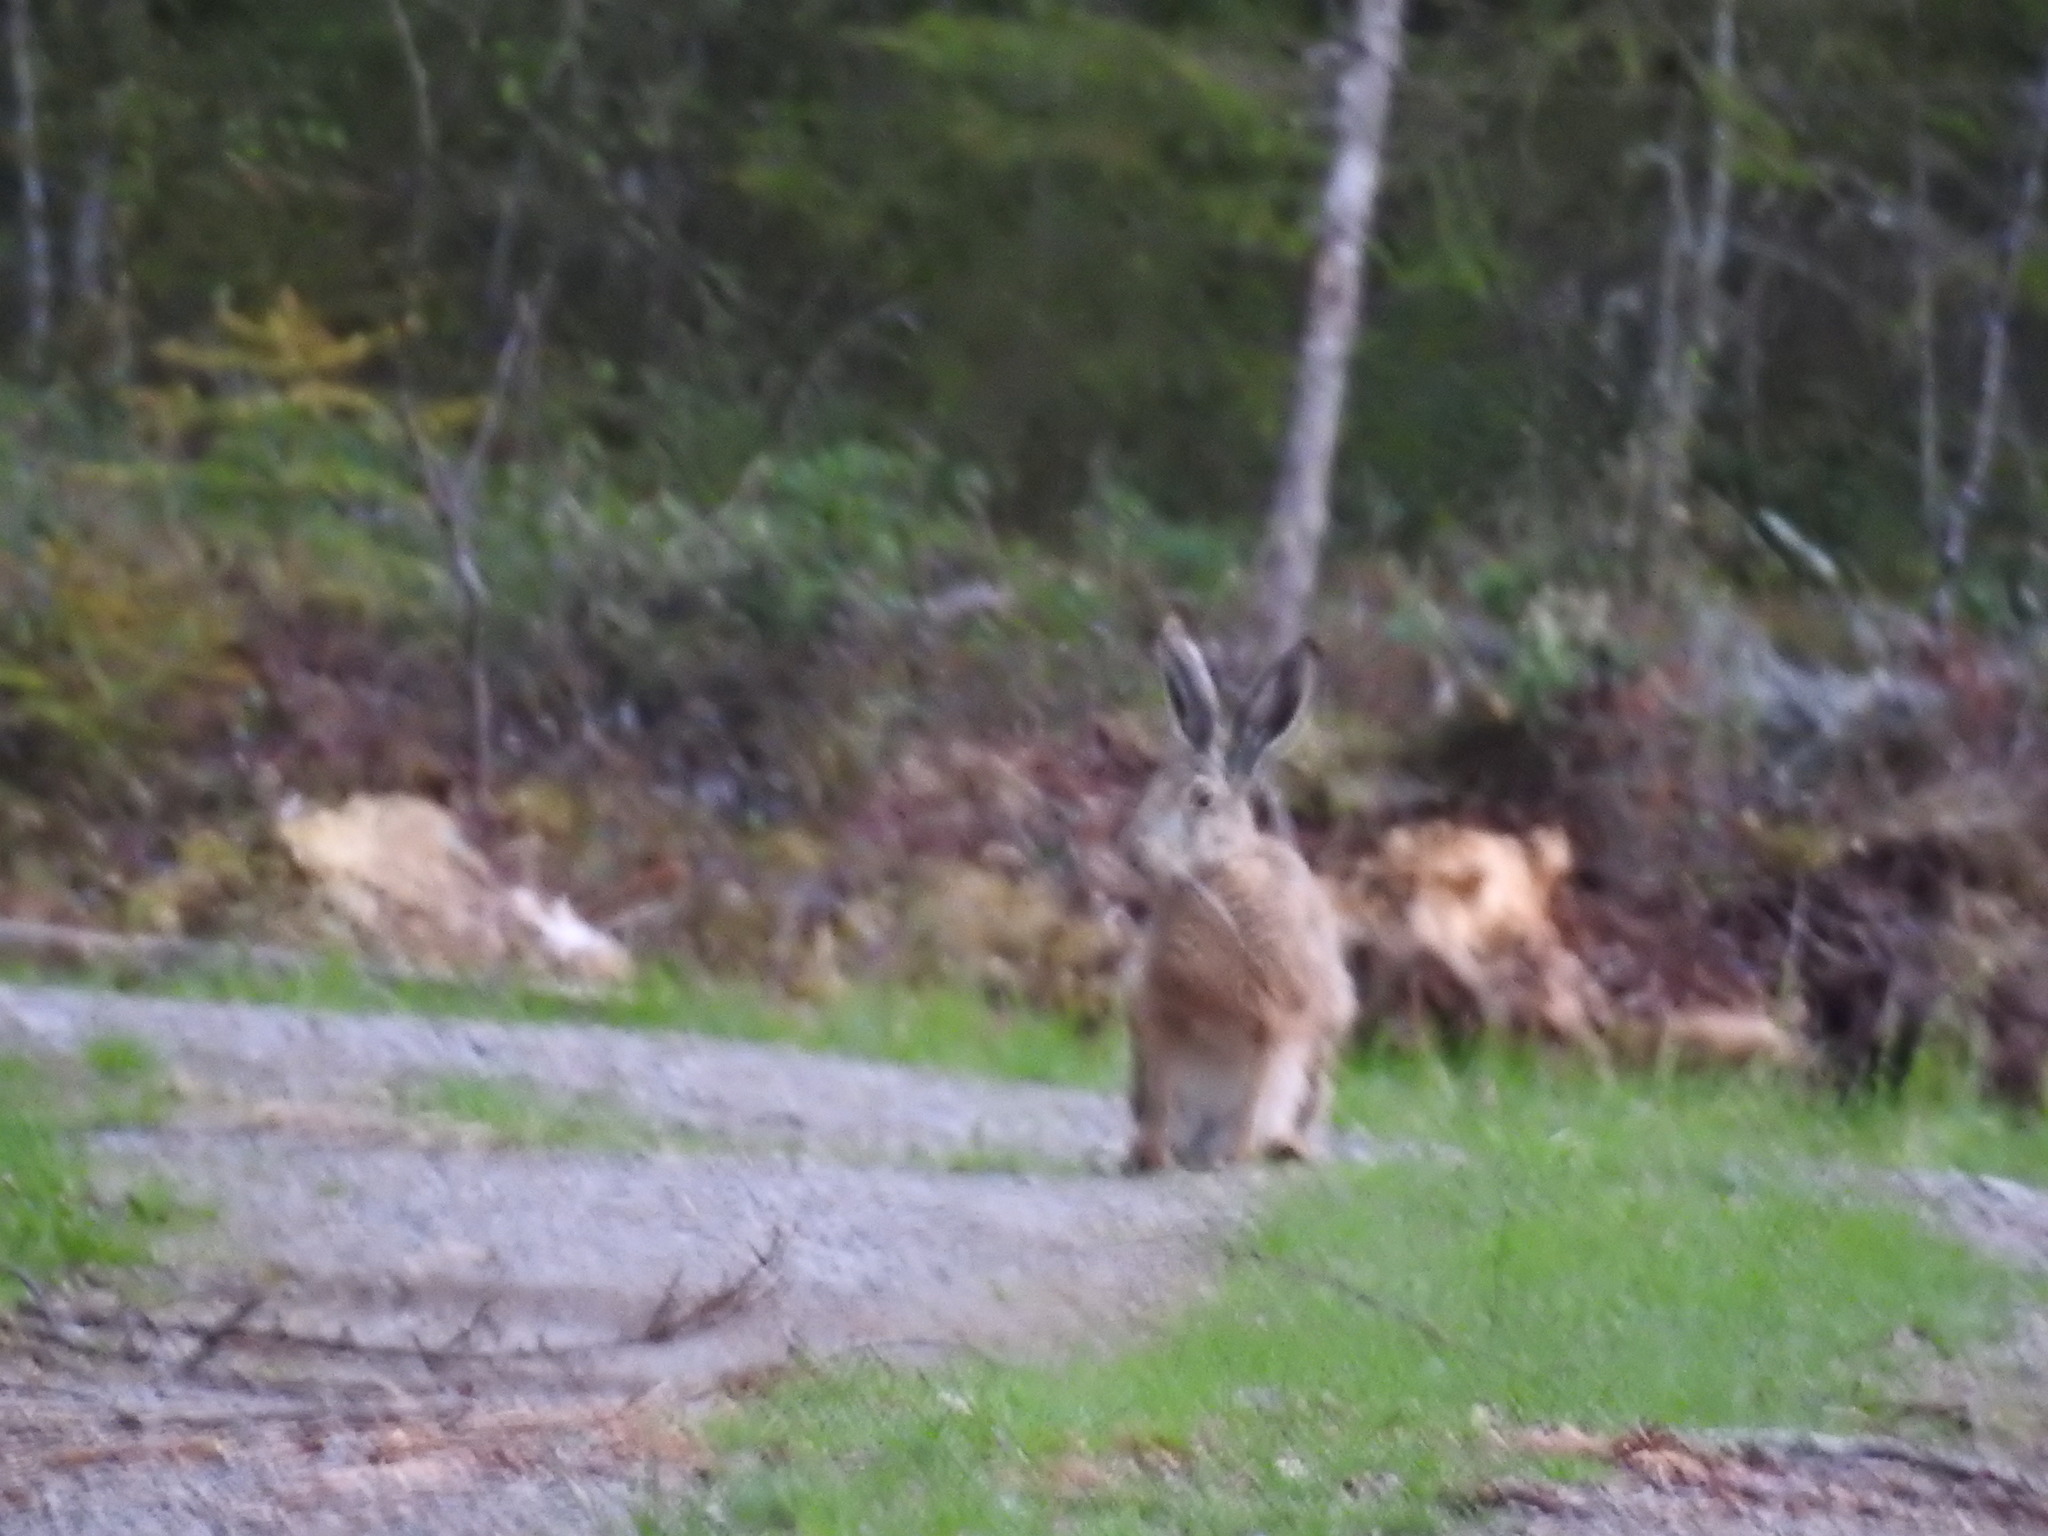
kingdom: Animalia
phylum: Chordata
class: Mammalia
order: Lagomorpha
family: Leporidae
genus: Lepus
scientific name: Lepus europaeus
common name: European hare
